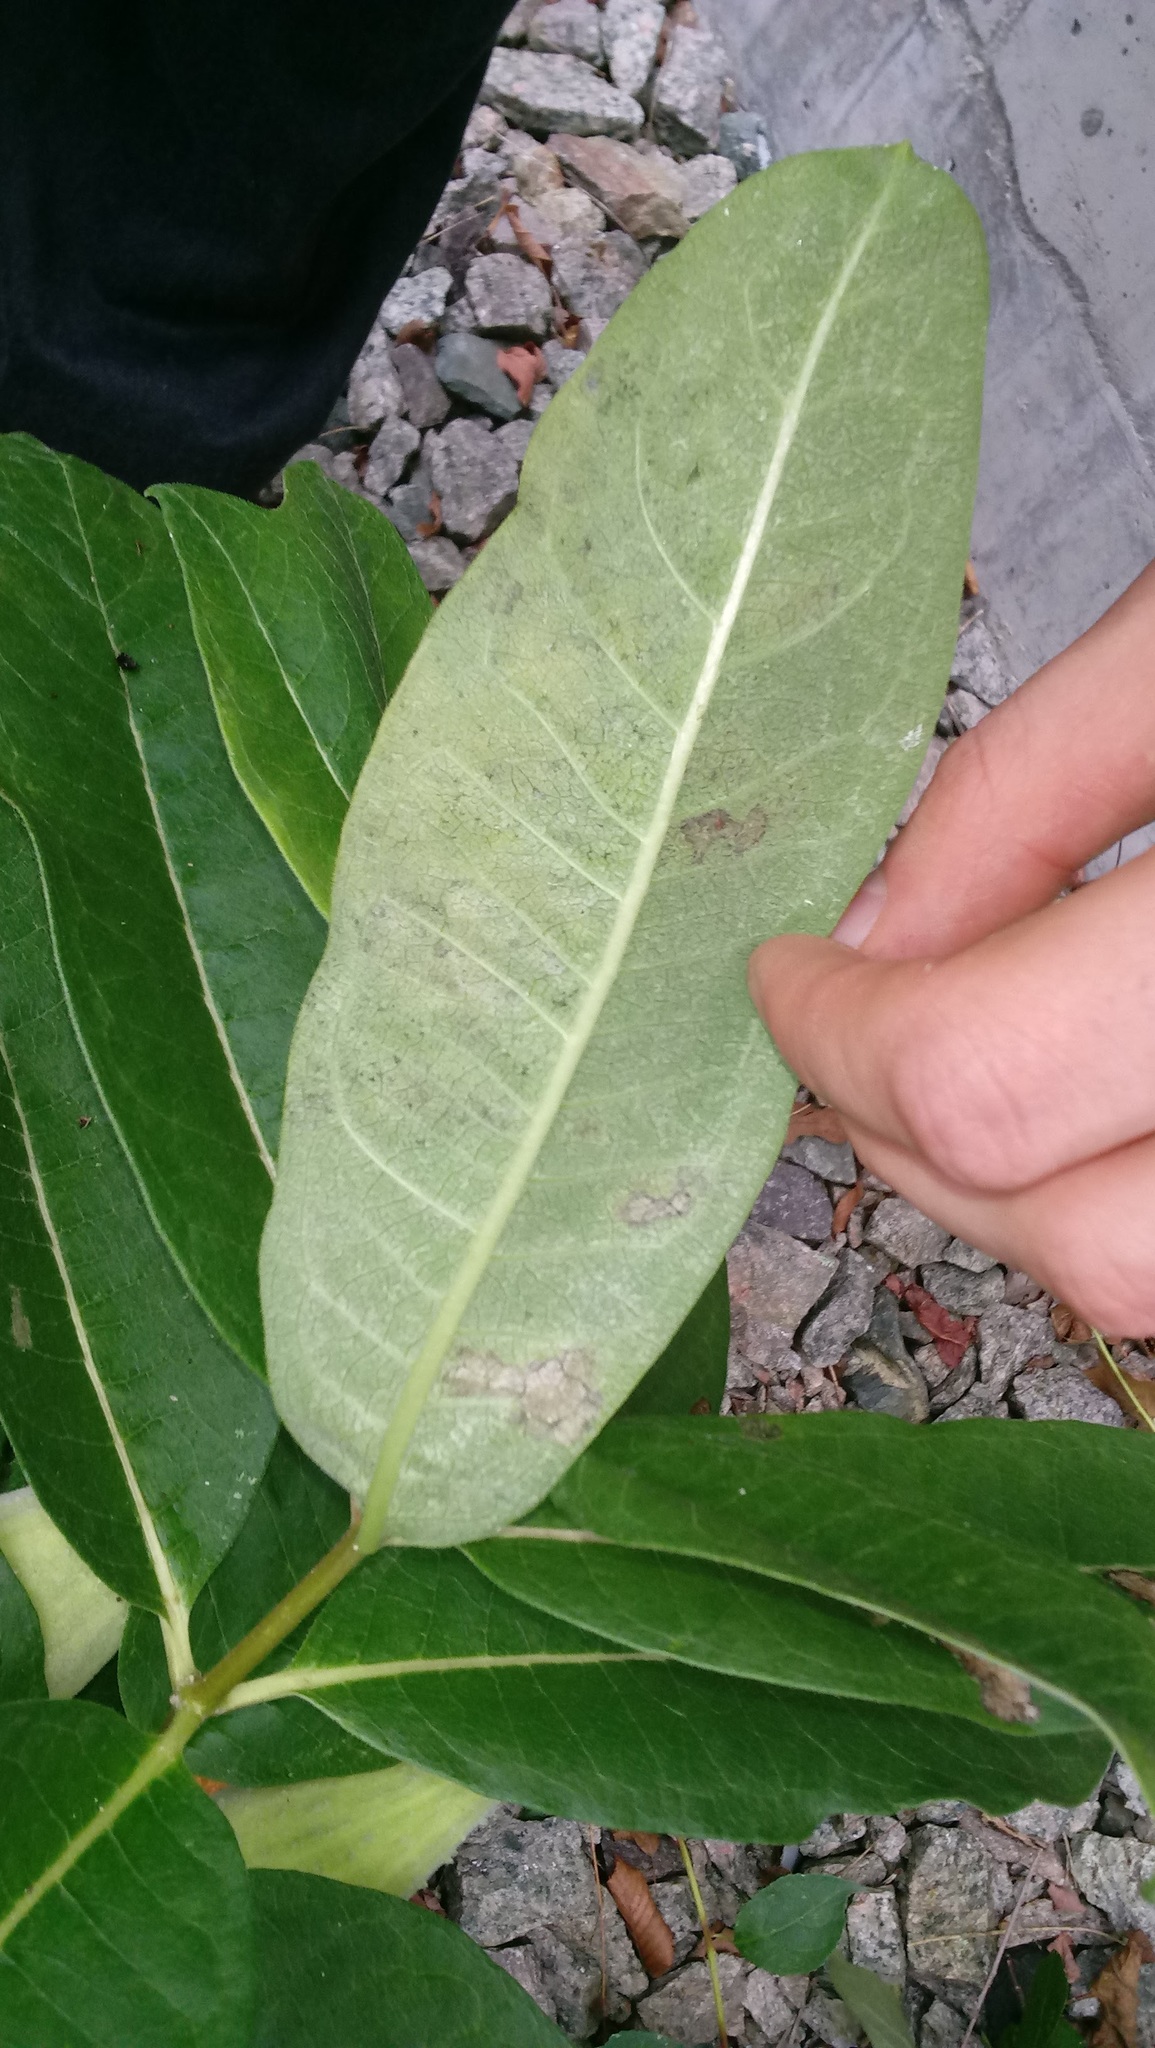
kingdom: Plantae
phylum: Tracheophyta
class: Magnoliopsida
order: Gentianales
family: Apocynaceae
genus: Asclepias
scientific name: Asclepias syriaca
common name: Common milkweed
